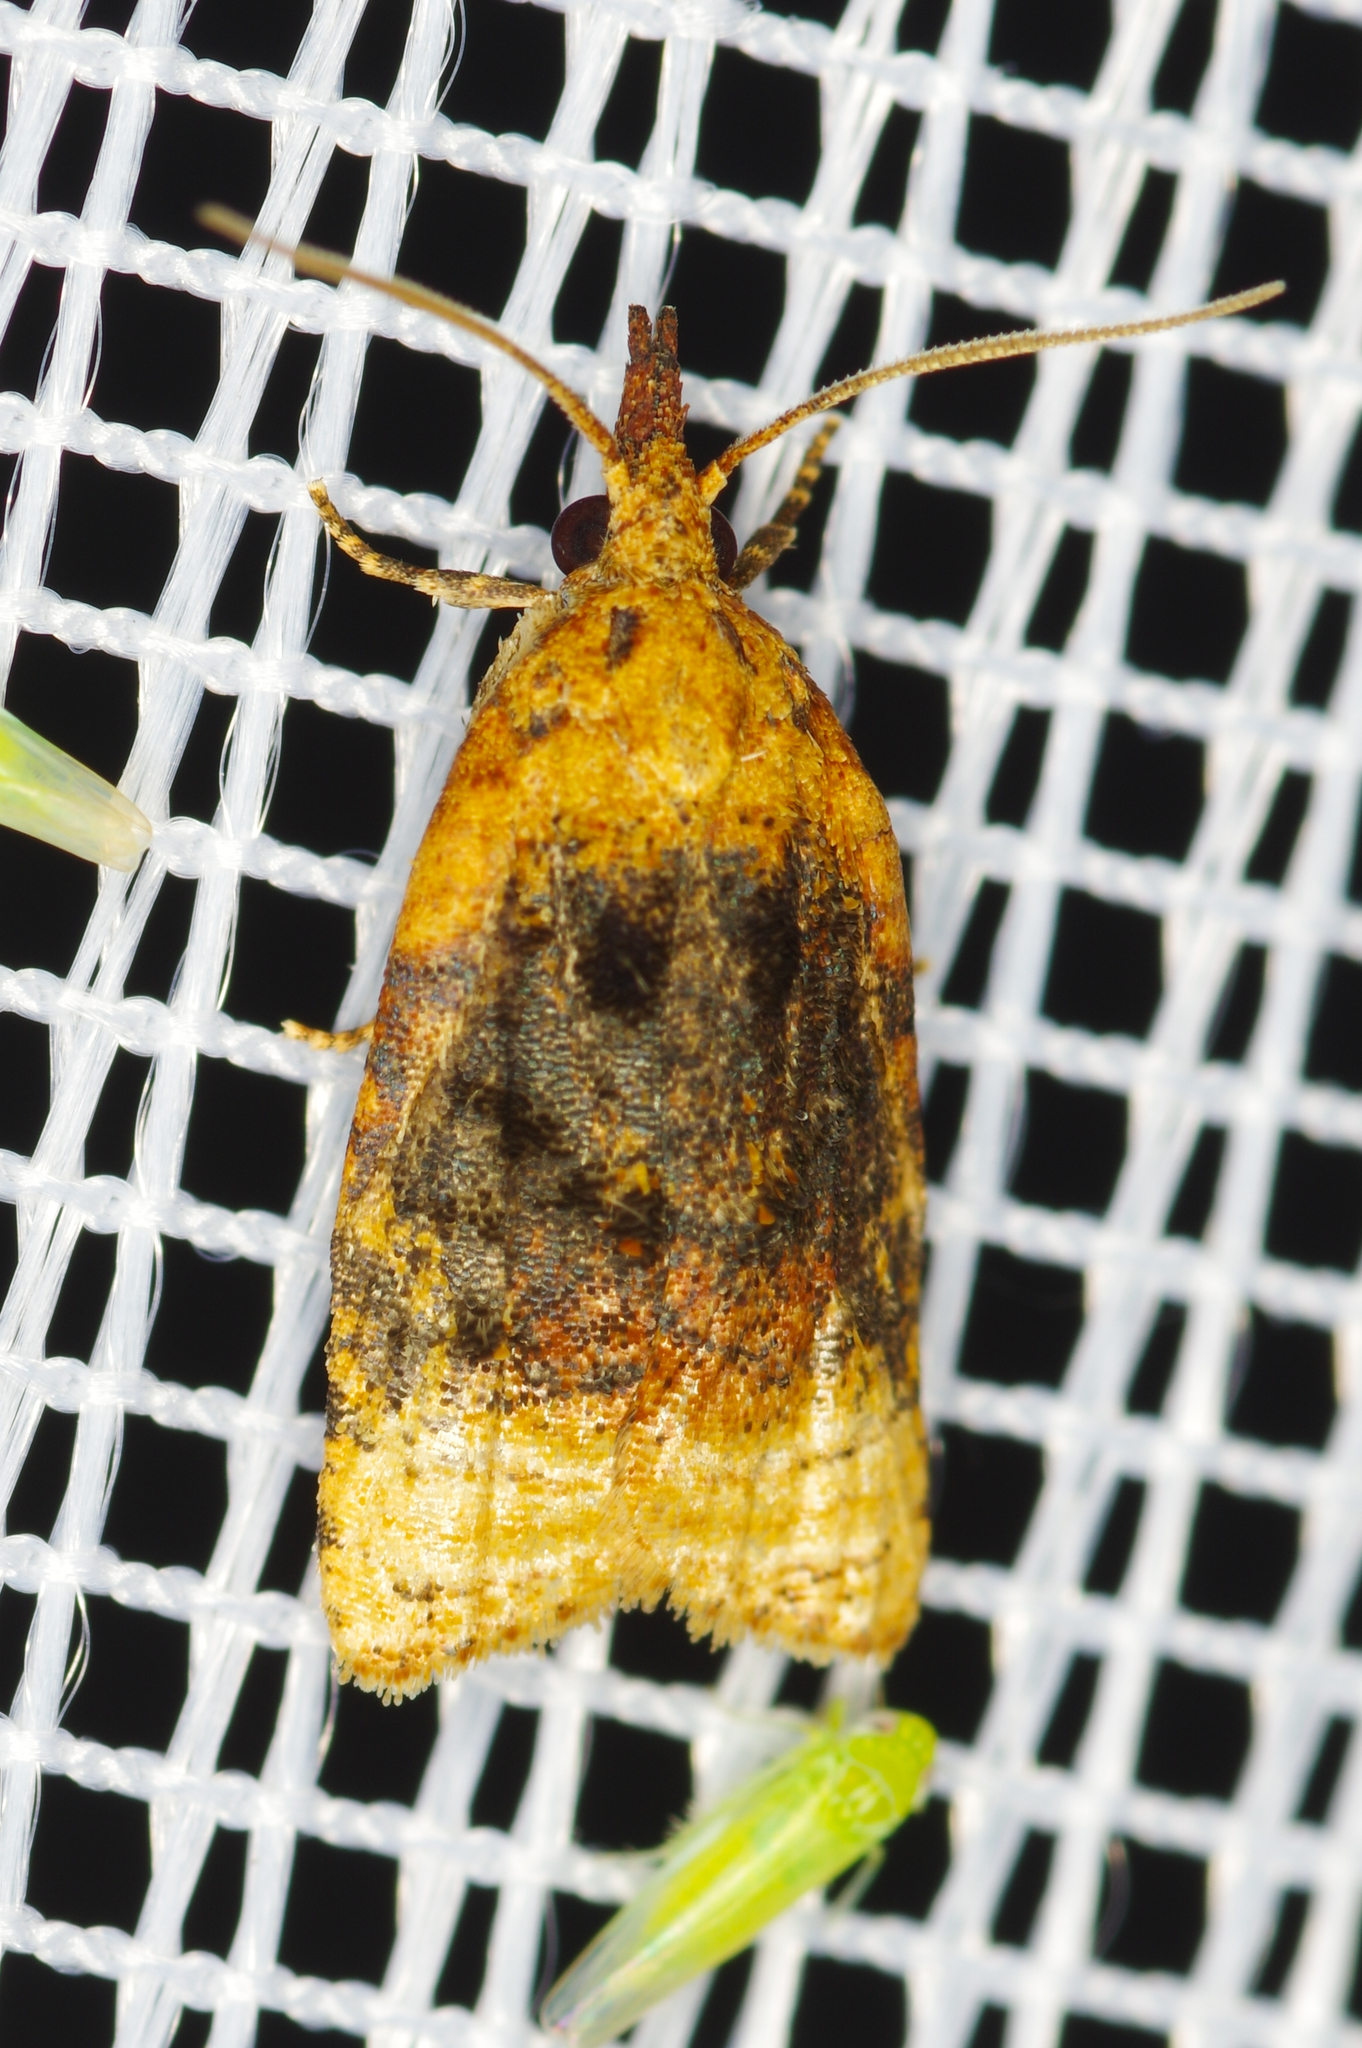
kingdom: Animalia
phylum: Arthropoda
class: Insecta
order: Lepidoptera
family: Tortricidae
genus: Platynota
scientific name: Platynota flavedana
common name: Black-shaded platynota moth
